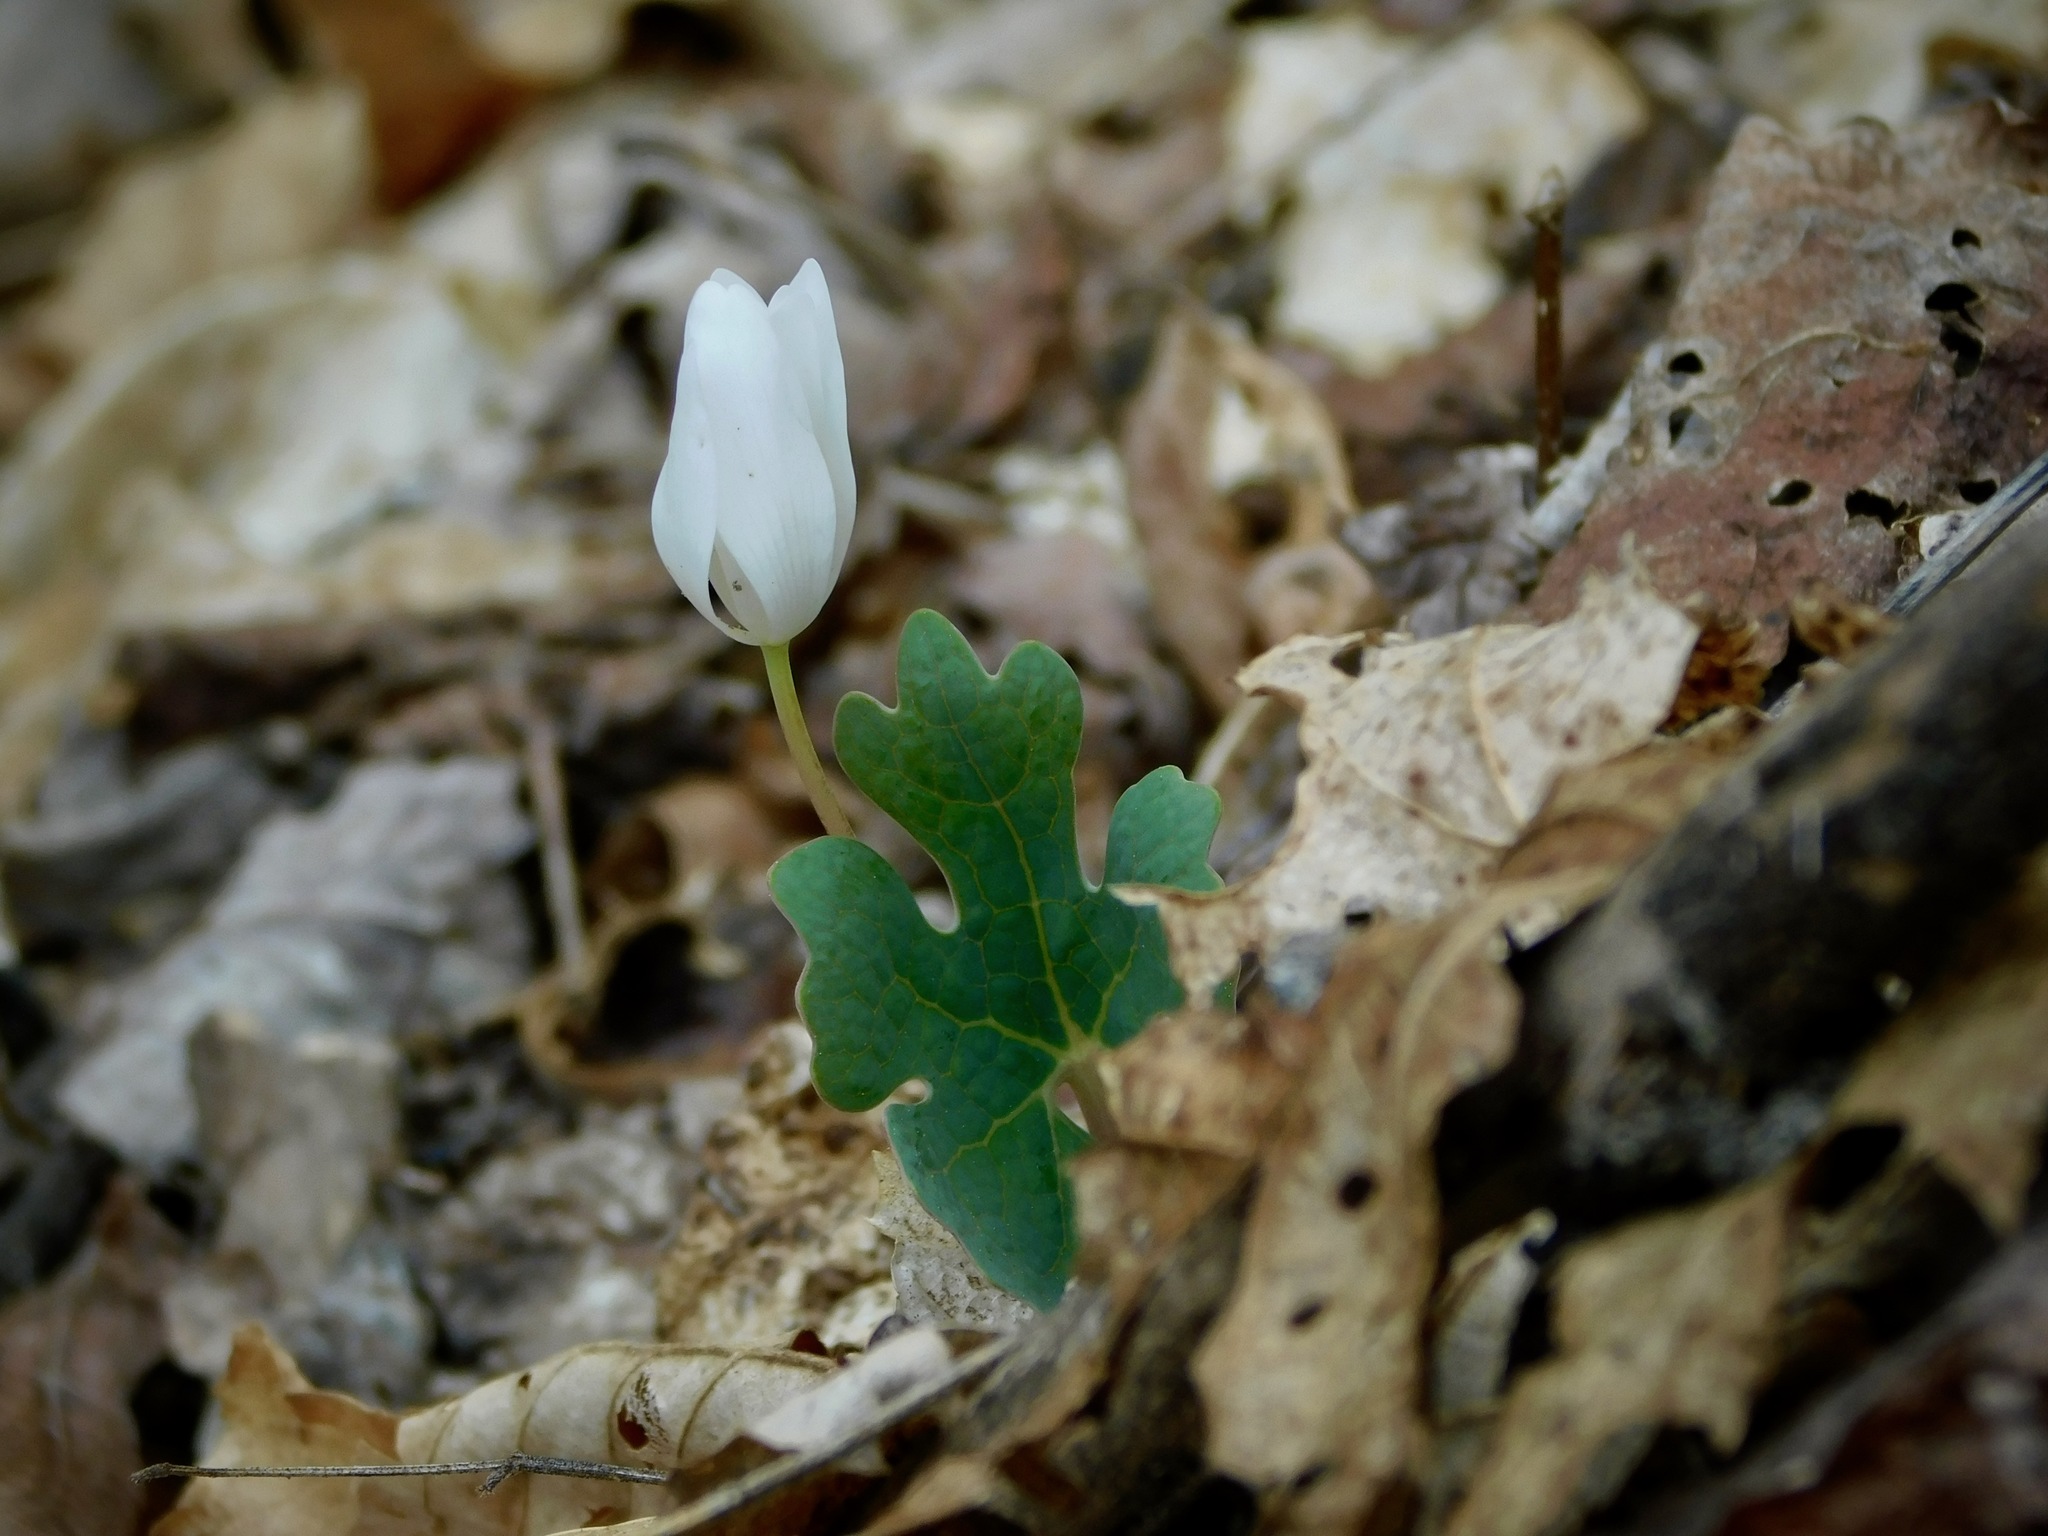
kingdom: Plantae
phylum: Tracheophyta
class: Magnoliopsida
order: Ranunculales
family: Papaveraceae
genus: Sanguinaria
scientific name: Sanguinaria canadensis
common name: Bloodroot
